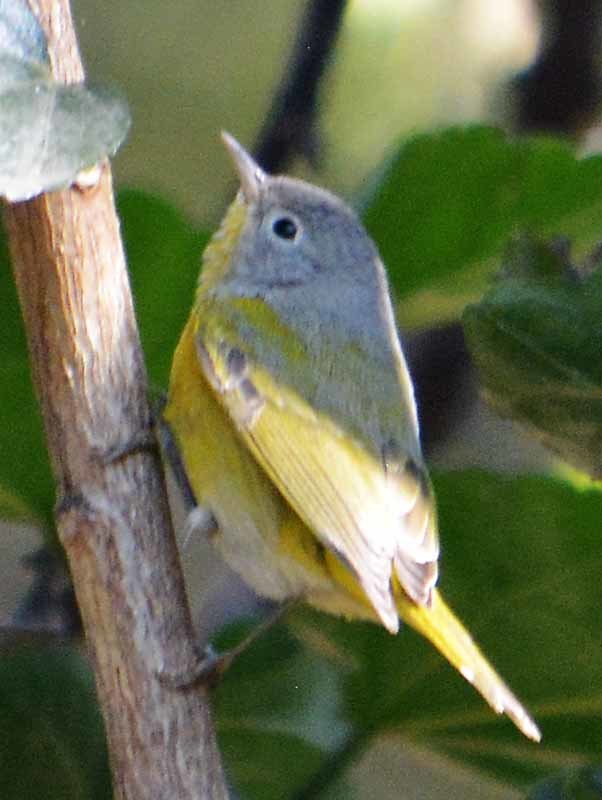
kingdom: Animalia
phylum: Chordata
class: Aves
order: Passeriformes
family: Parulidae
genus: Leiothlypis
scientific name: Leiothlypis ruficapilla
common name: Nashville warbler
